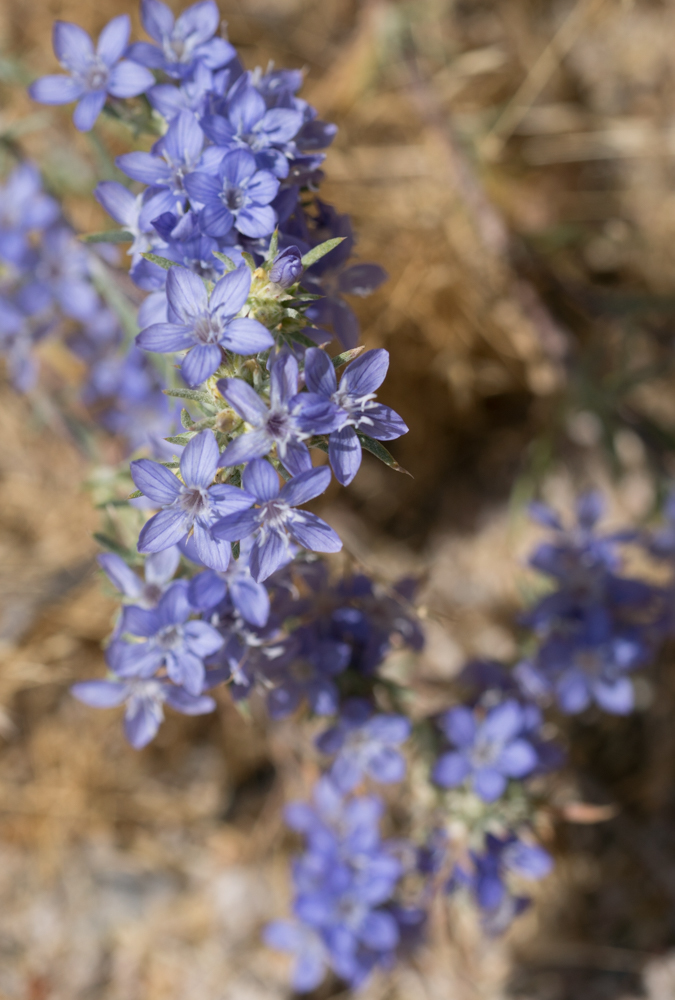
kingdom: Plantae
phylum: Tracheophyta
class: Magnoliopsida
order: Ericales
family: Polemoniaceae
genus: Eriastrum
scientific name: Eriastrum densifolium
